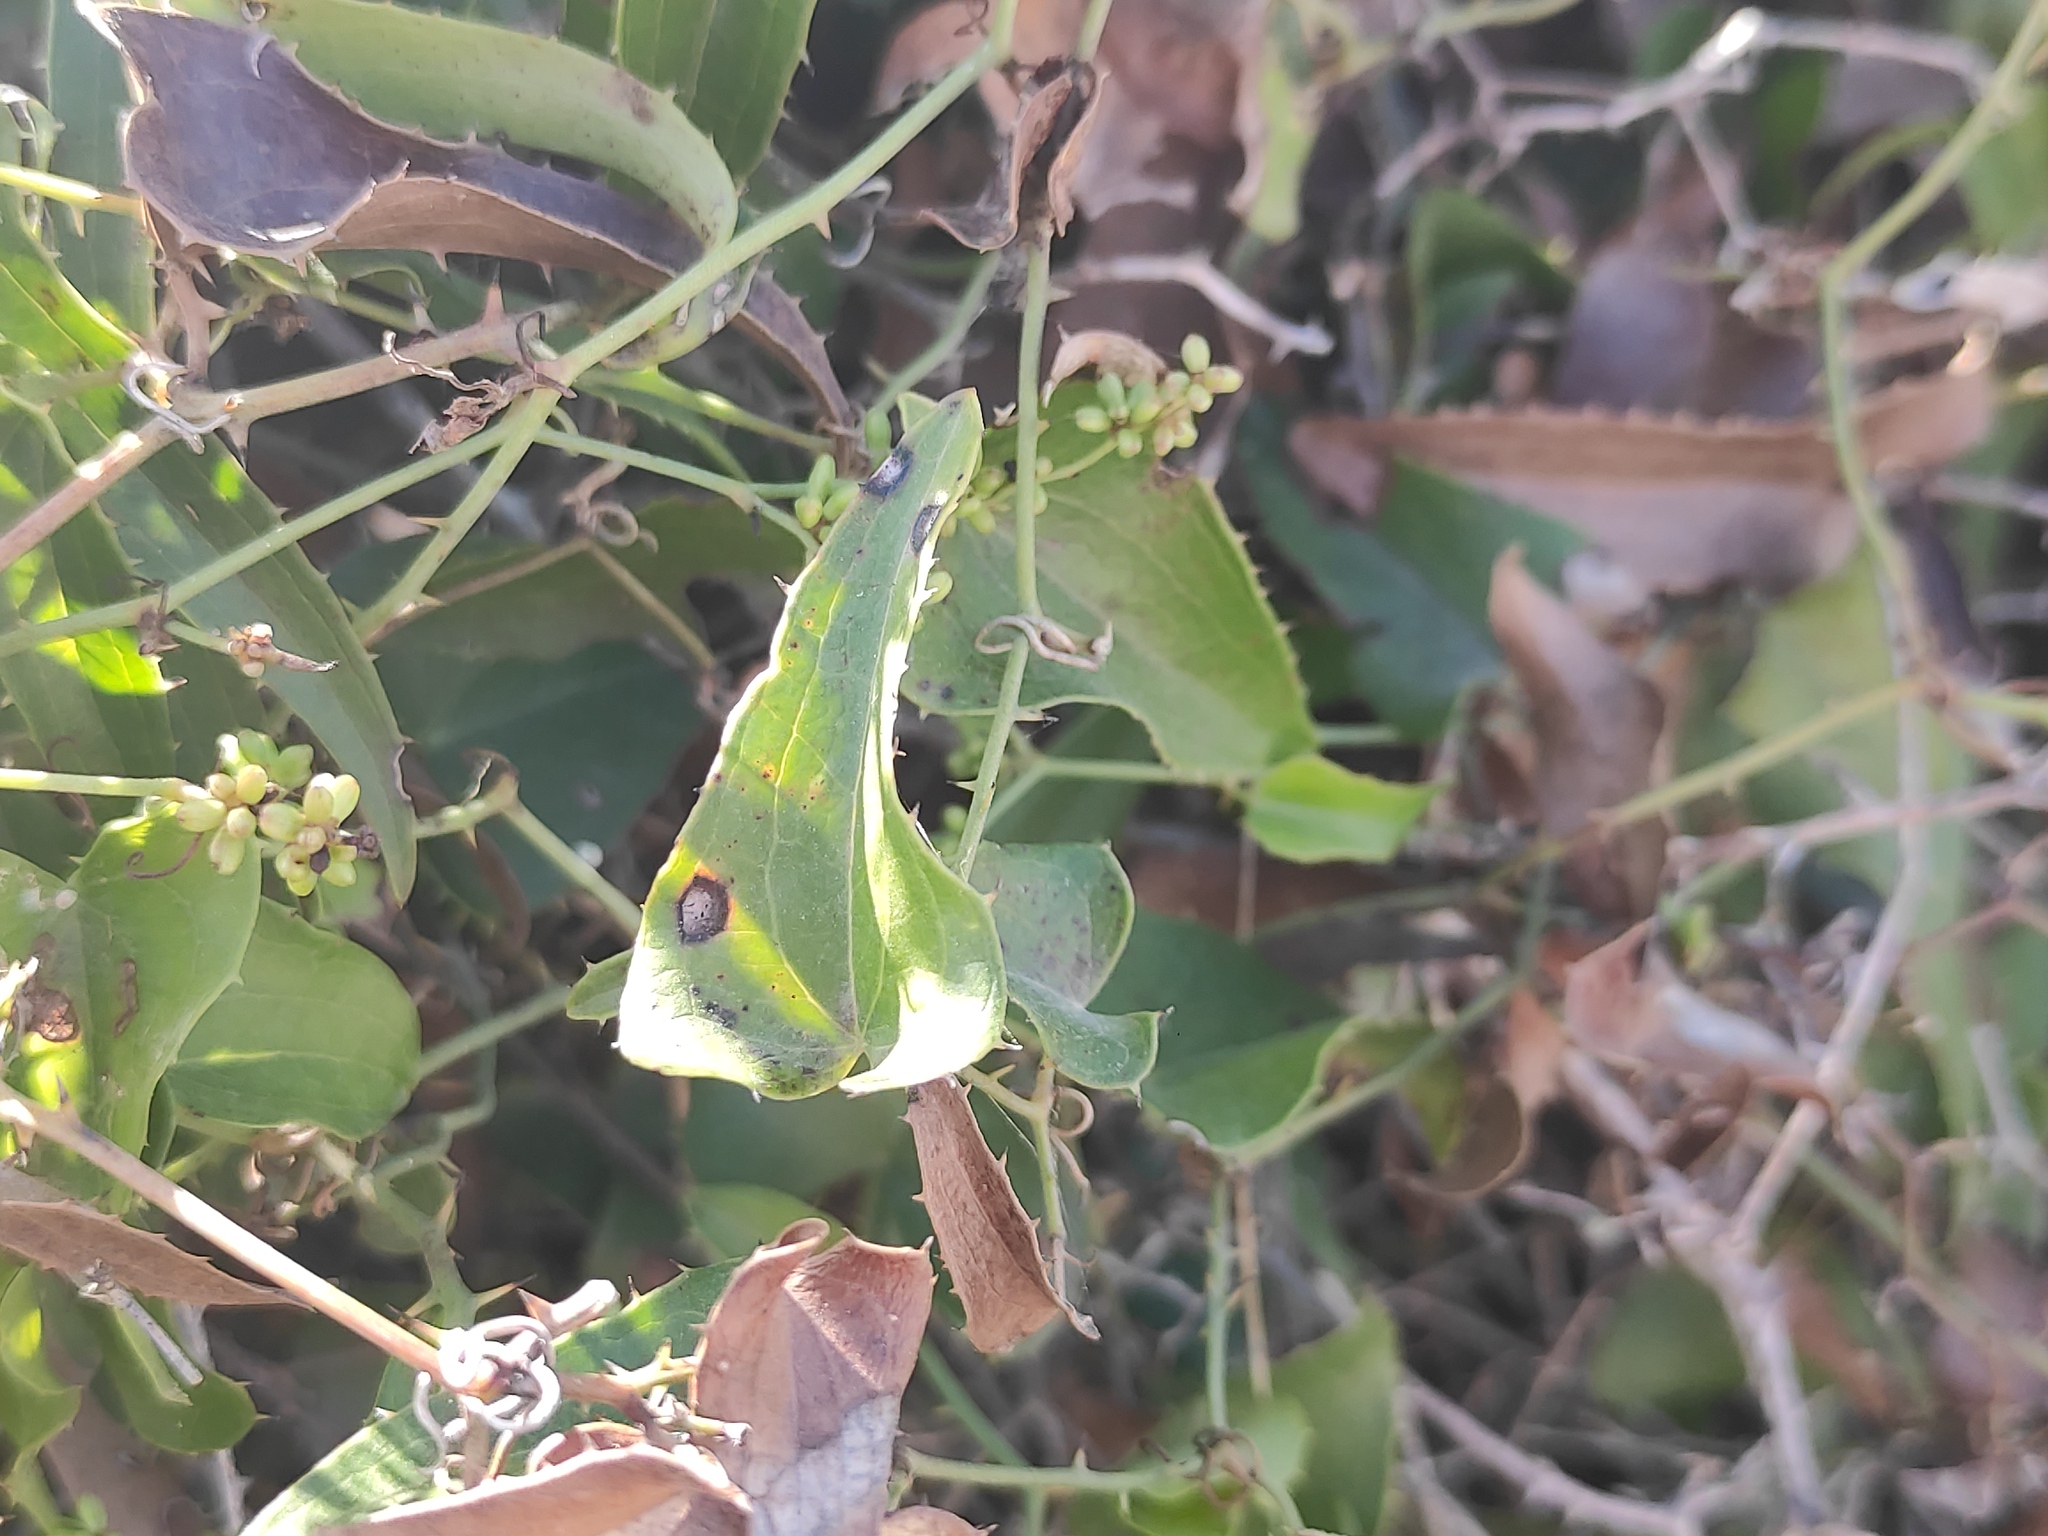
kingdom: Plantae
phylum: Tracheophyta
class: Liliopsida
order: Liliales
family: Smilacaceae
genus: Smilax
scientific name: Smilax aspera
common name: Common smilax
